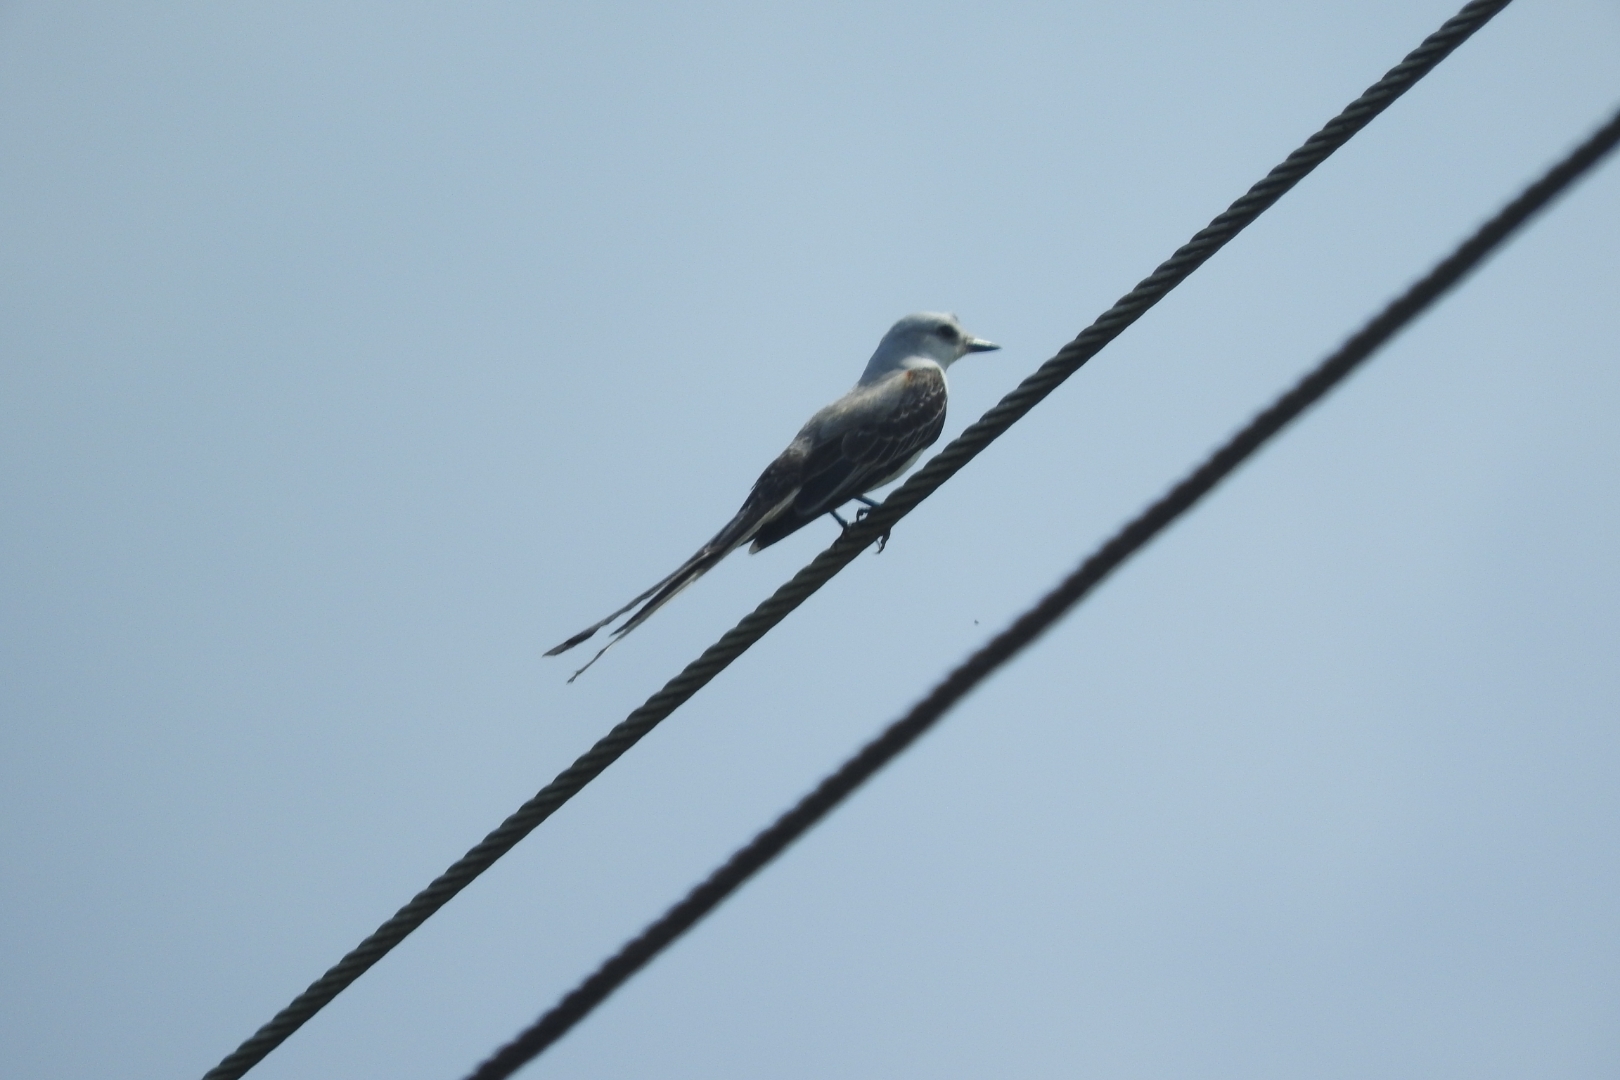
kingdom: Animalia
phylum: Chordata
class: Aves
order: Passeriformes
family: Tyrannidae
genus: Tyrannus
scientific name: Tyrannus forficatus
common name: Scissor-tailed flycatcher
